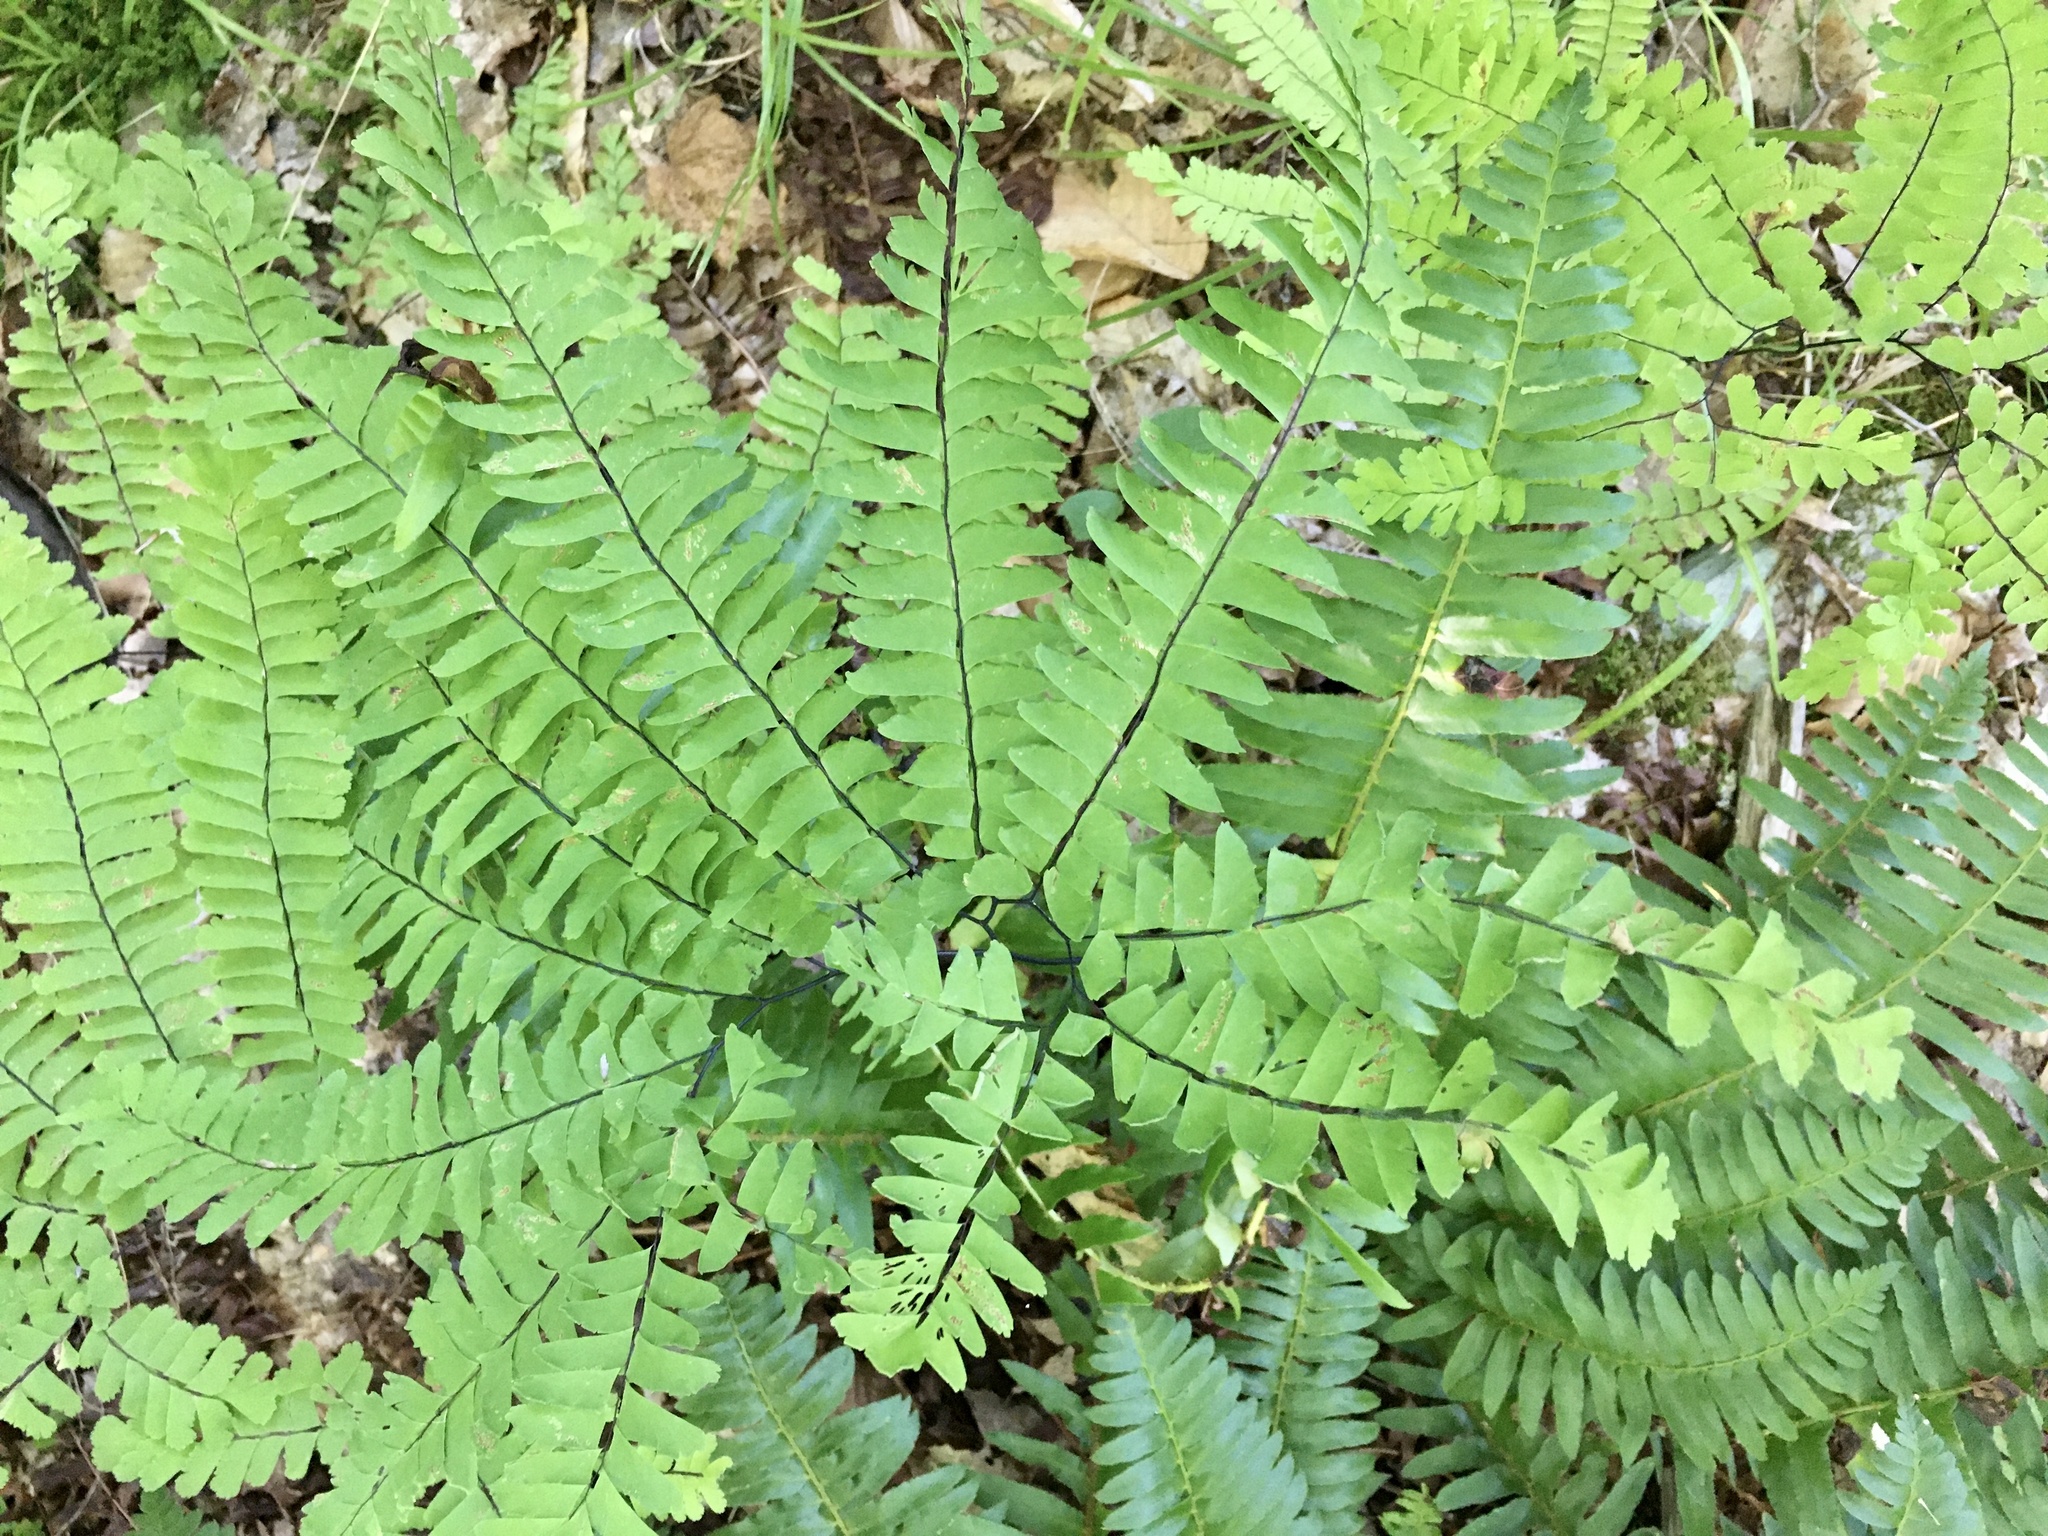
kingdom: Plantae
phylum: Tracheophyta
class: Polypodiopsida
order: Polypodiales
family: Pteridaceae
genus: Adiantum
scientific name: Adiantum pedatum
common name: Five-finger fern
